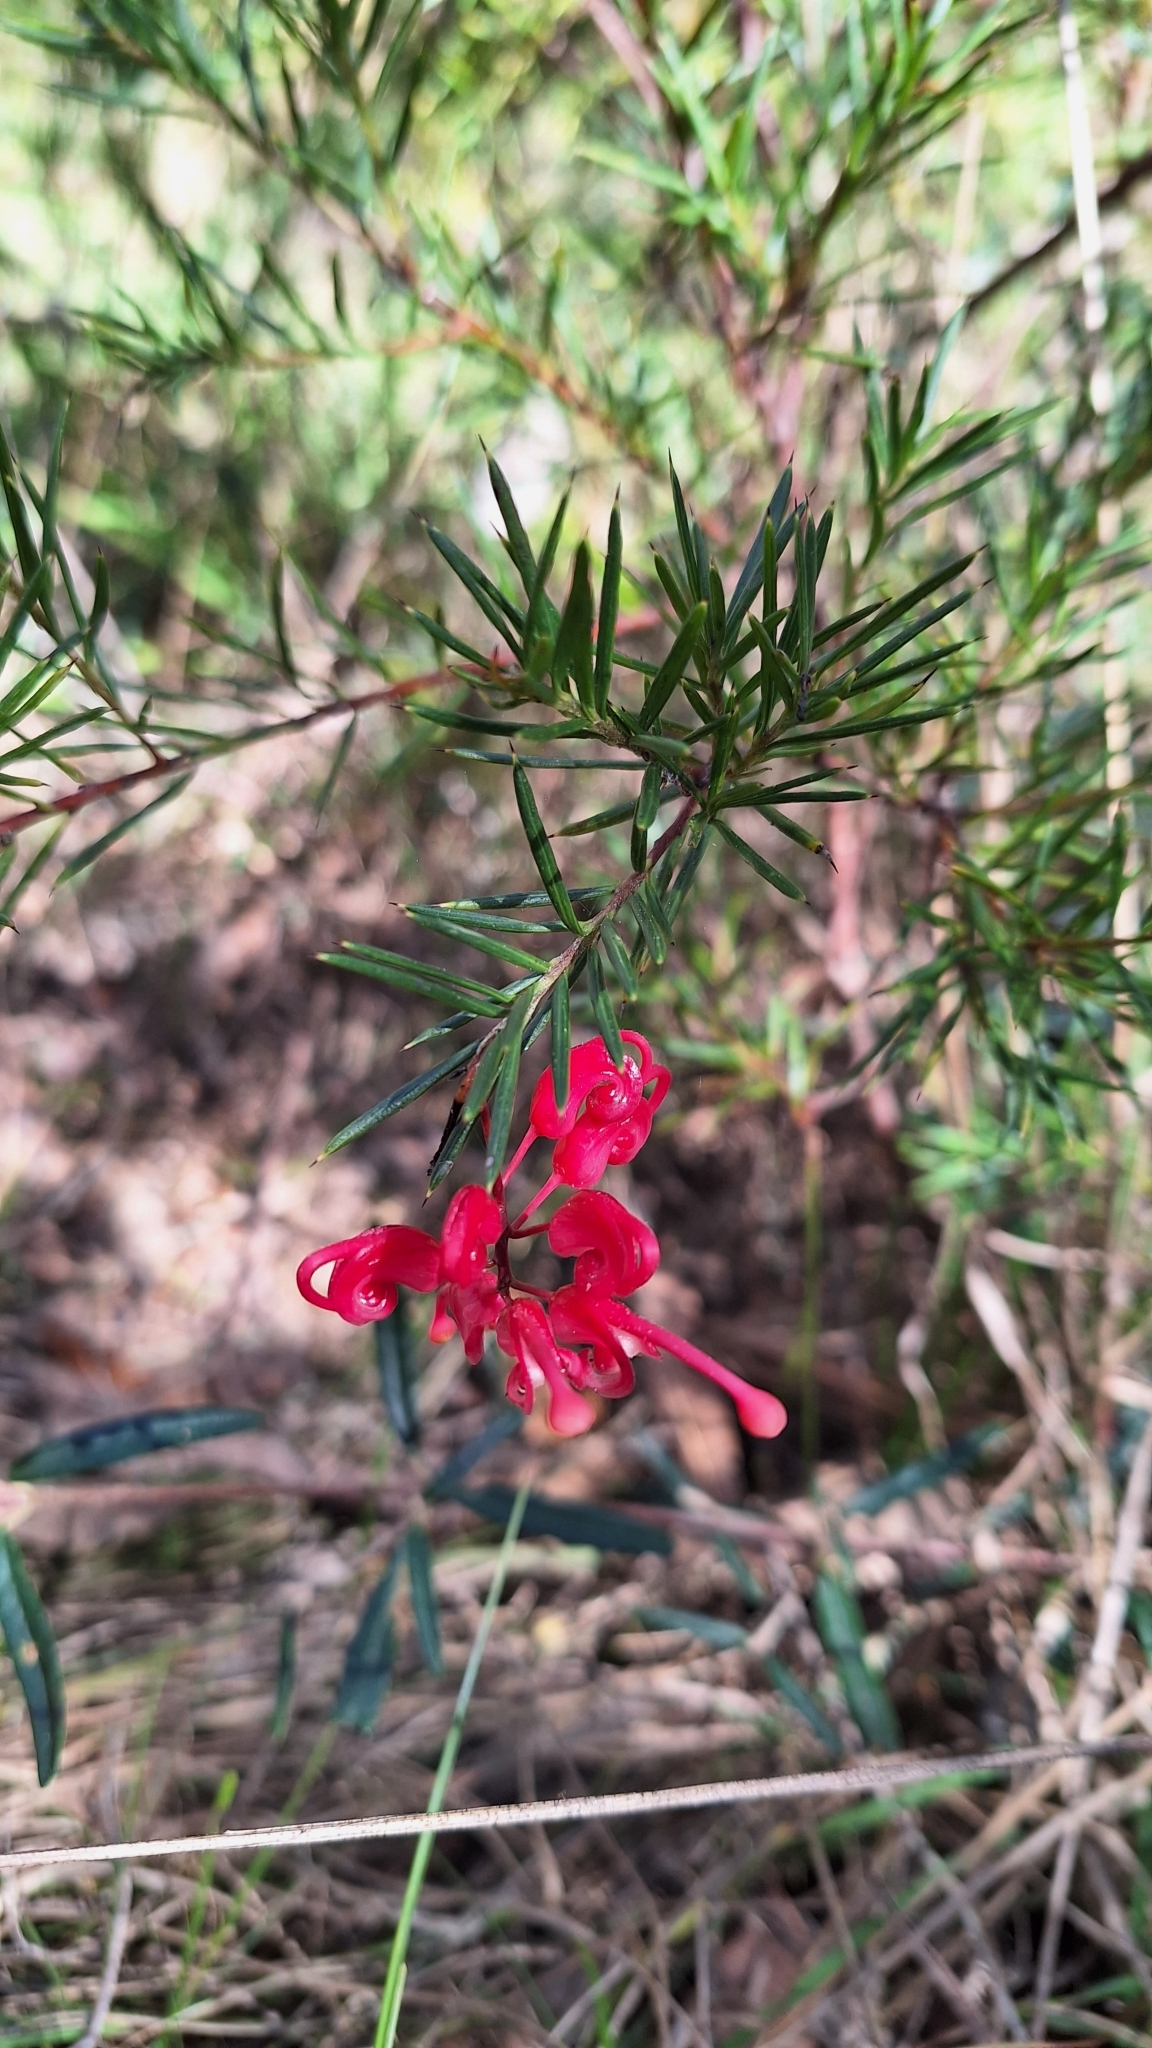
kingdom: Plantae
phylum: Tracheophyta
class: Magnoliopsida
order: Proteales
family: Proteaceae
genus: Grevillea
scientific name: Grevillea rosmarinifolia
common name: Rosemary grevillea
